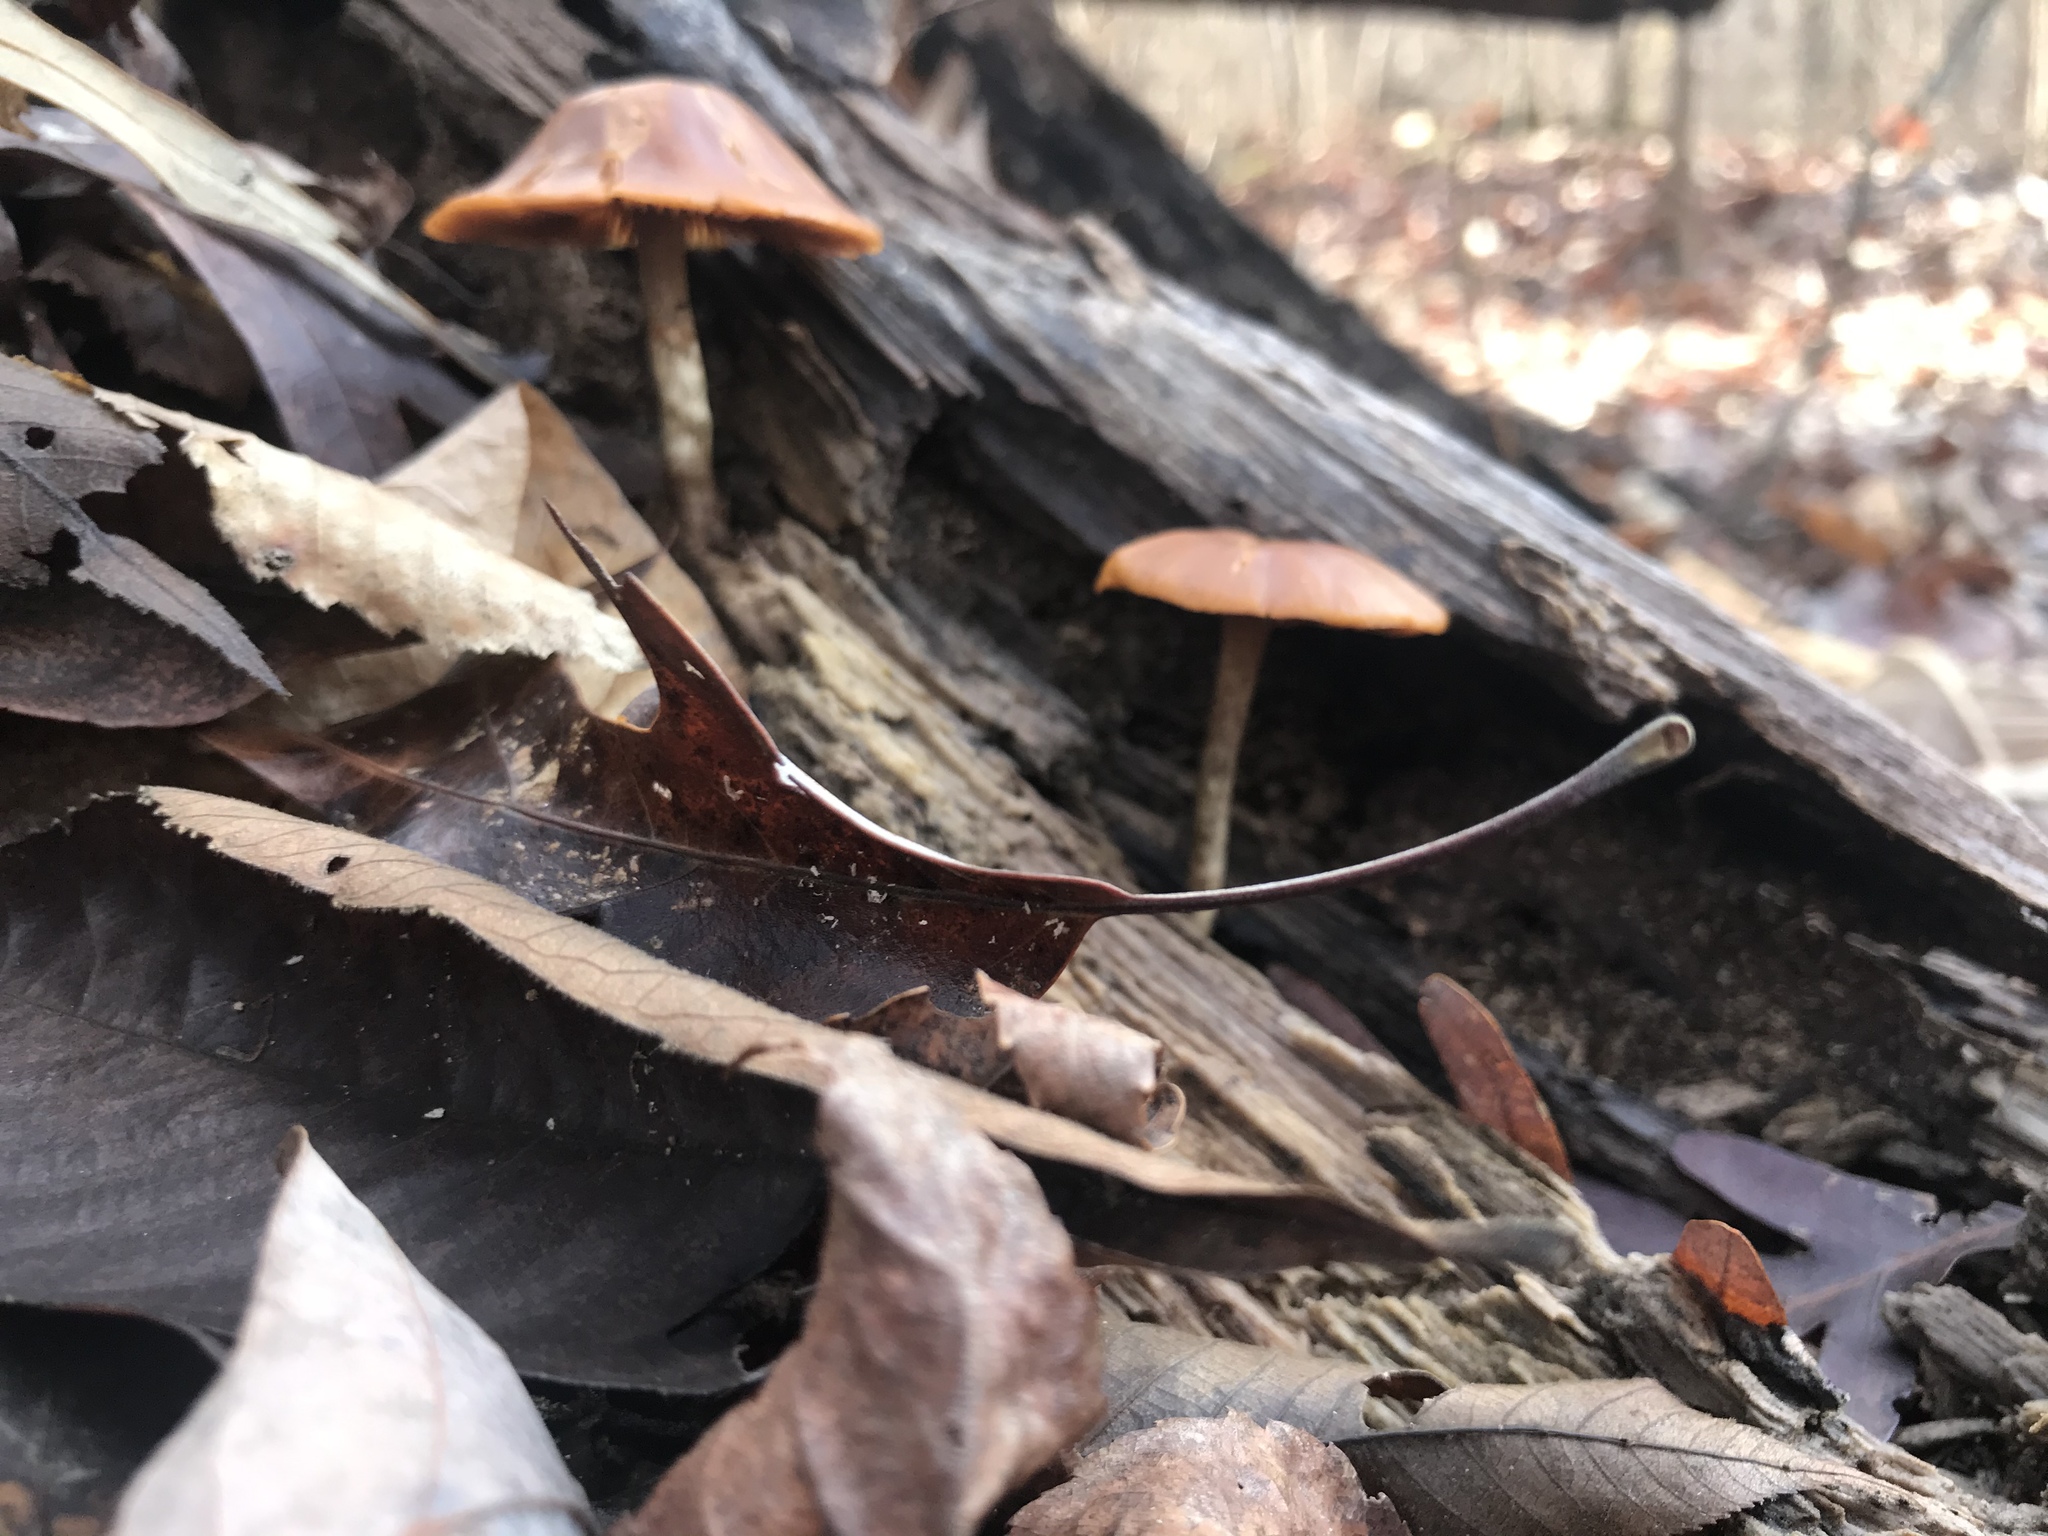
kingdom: Fungi
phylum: Basidiomycota
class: Agaricomycetes
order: Agaricales
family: Hymenogastraceae
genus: Galerina
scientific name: Galerina marginata
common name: Funeral bell
